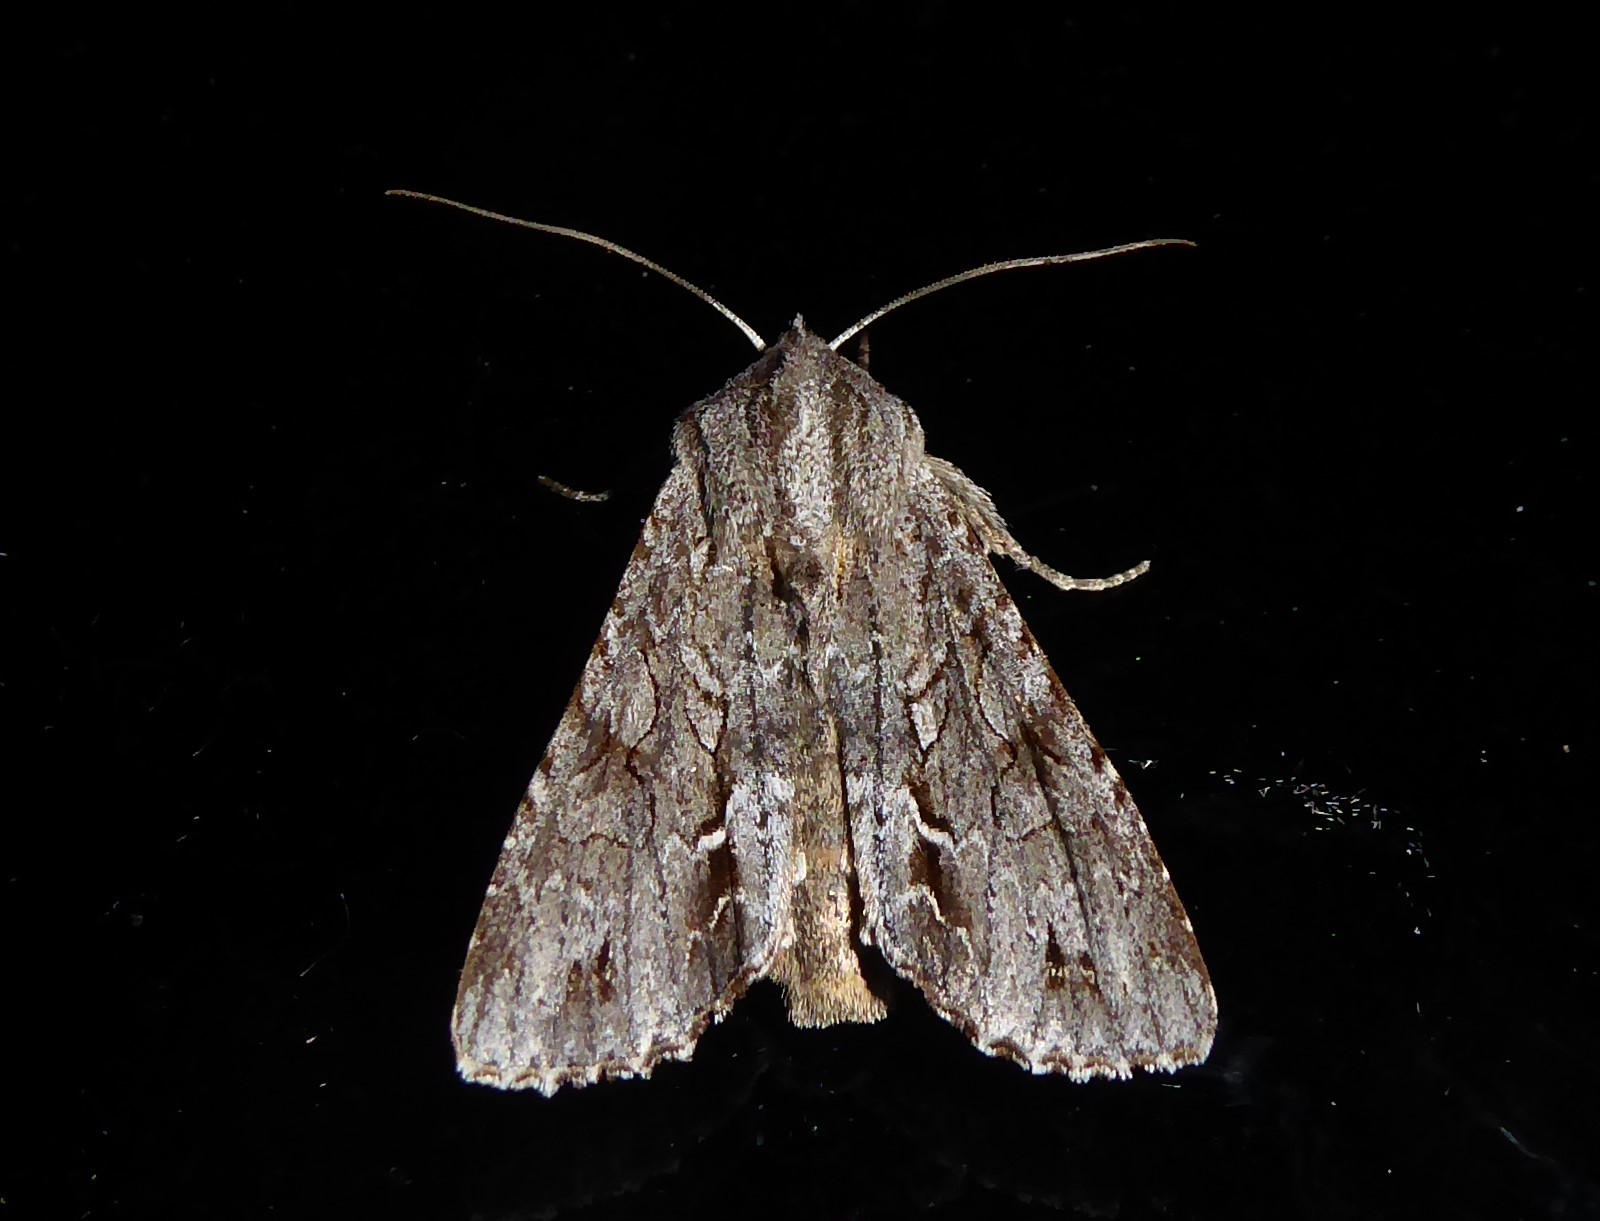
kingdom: Animalia
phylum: Arthropoda
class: Insecta
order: Lepidoptera
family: Noctuidae
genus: Ichneutica
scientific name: Ichneutica
